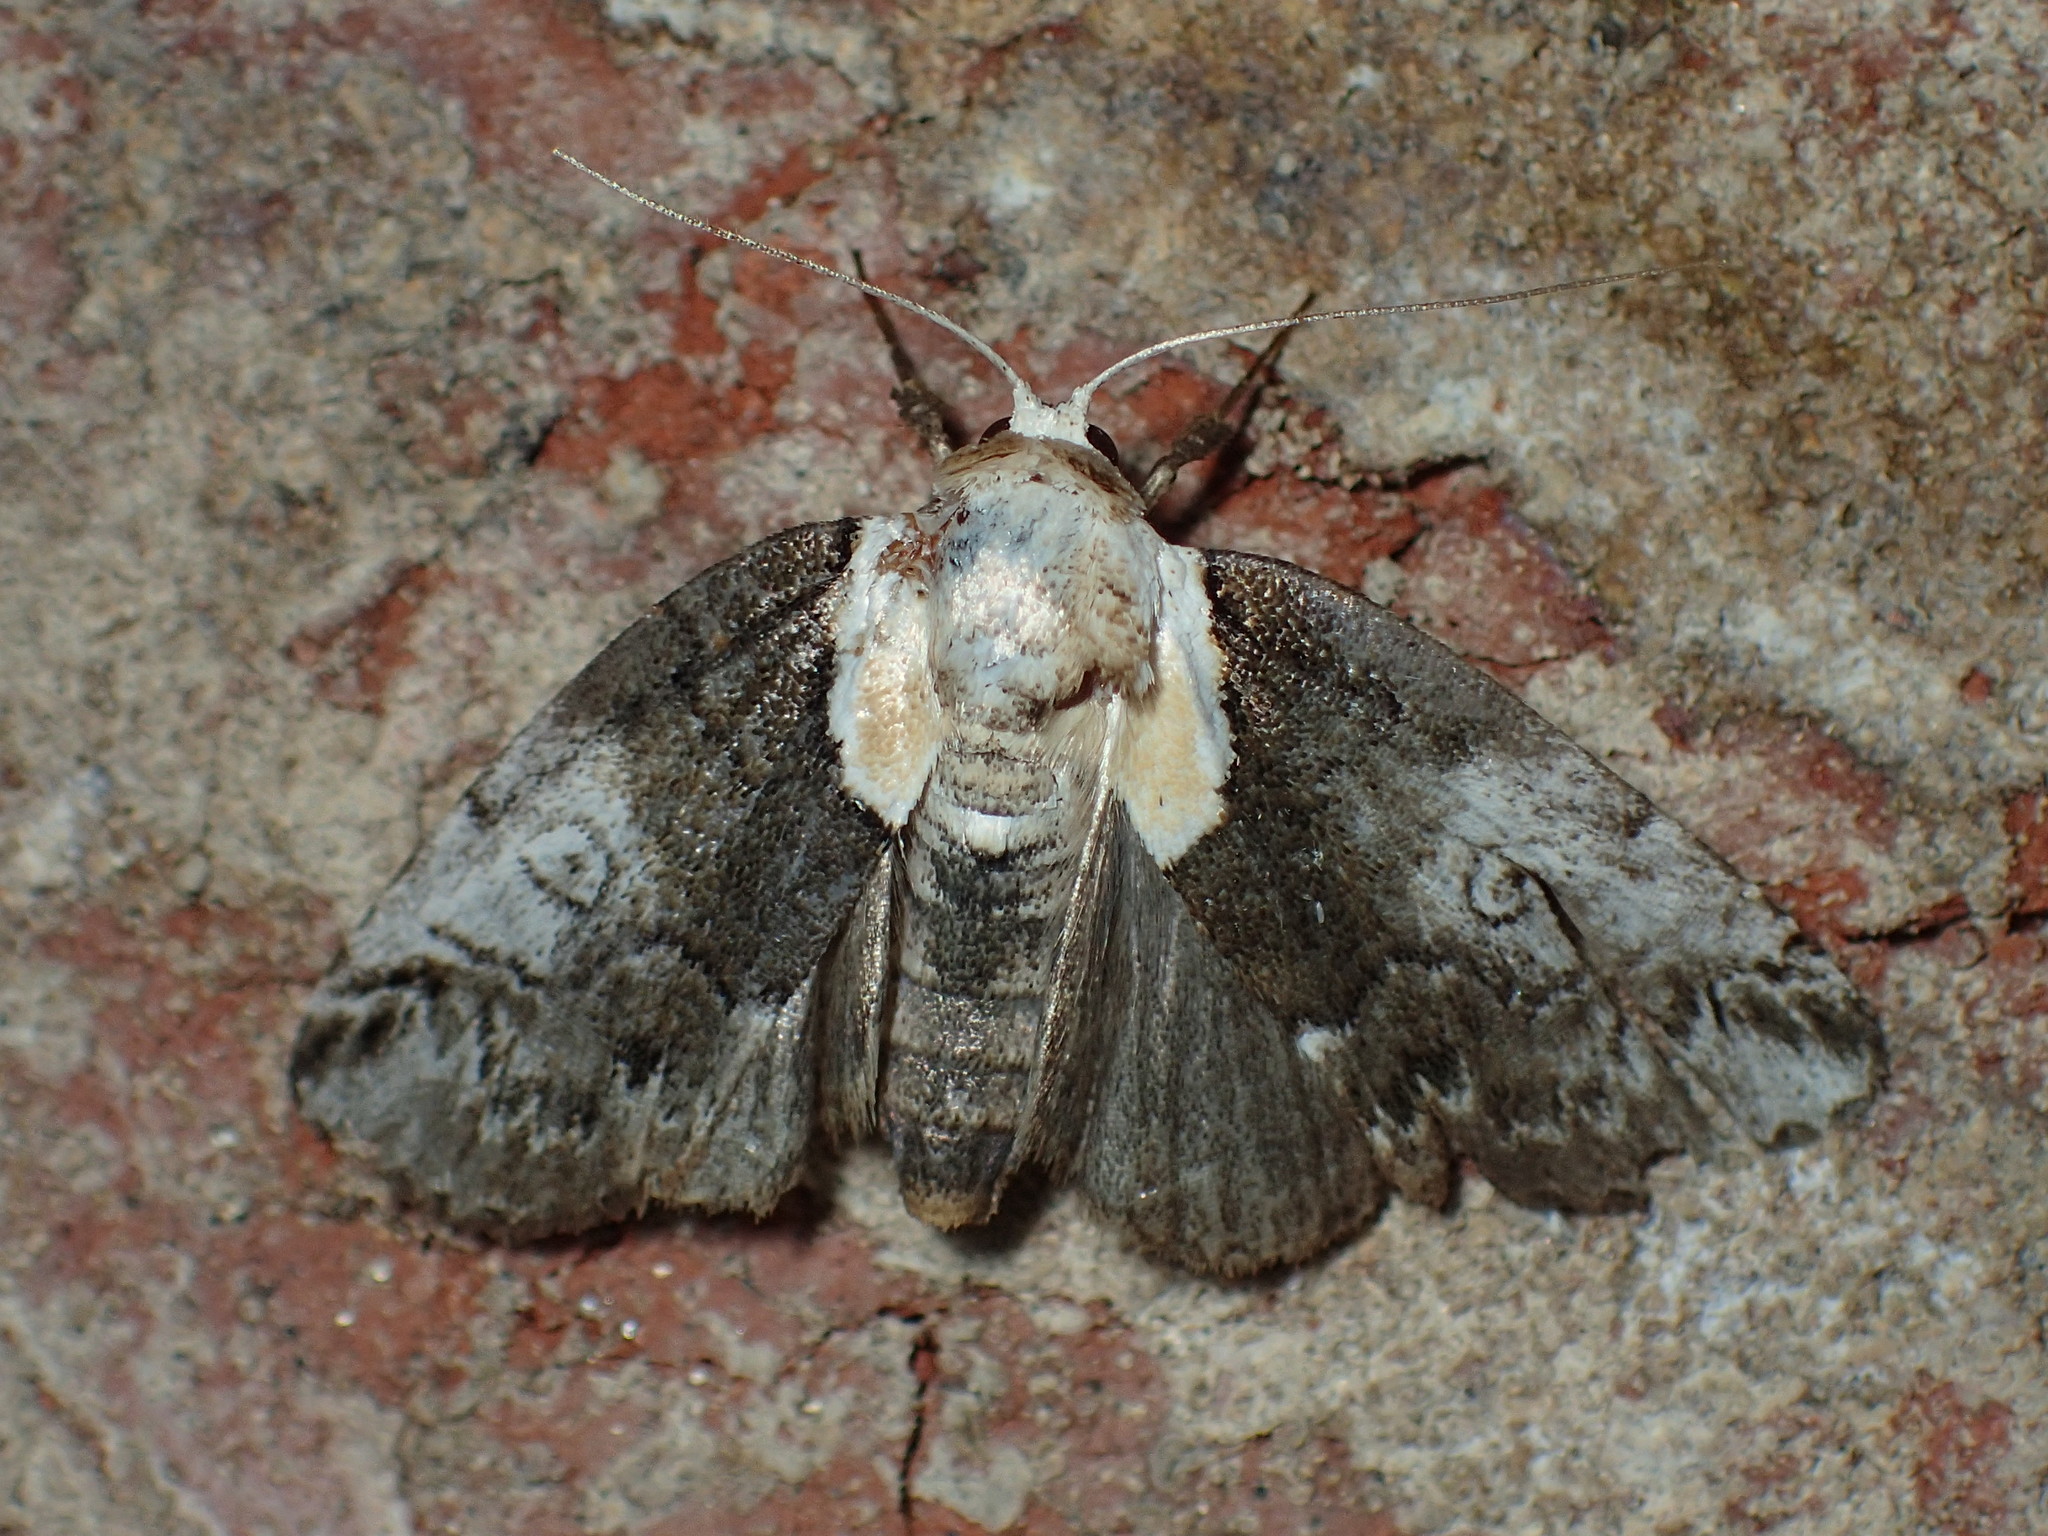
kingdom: Animalia
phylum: Arthropoda
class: Insecta
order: Lepidoptera
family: Nolidae
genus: Baileya
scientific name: Baileya ophthalmica
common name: Eyed baileya moth
